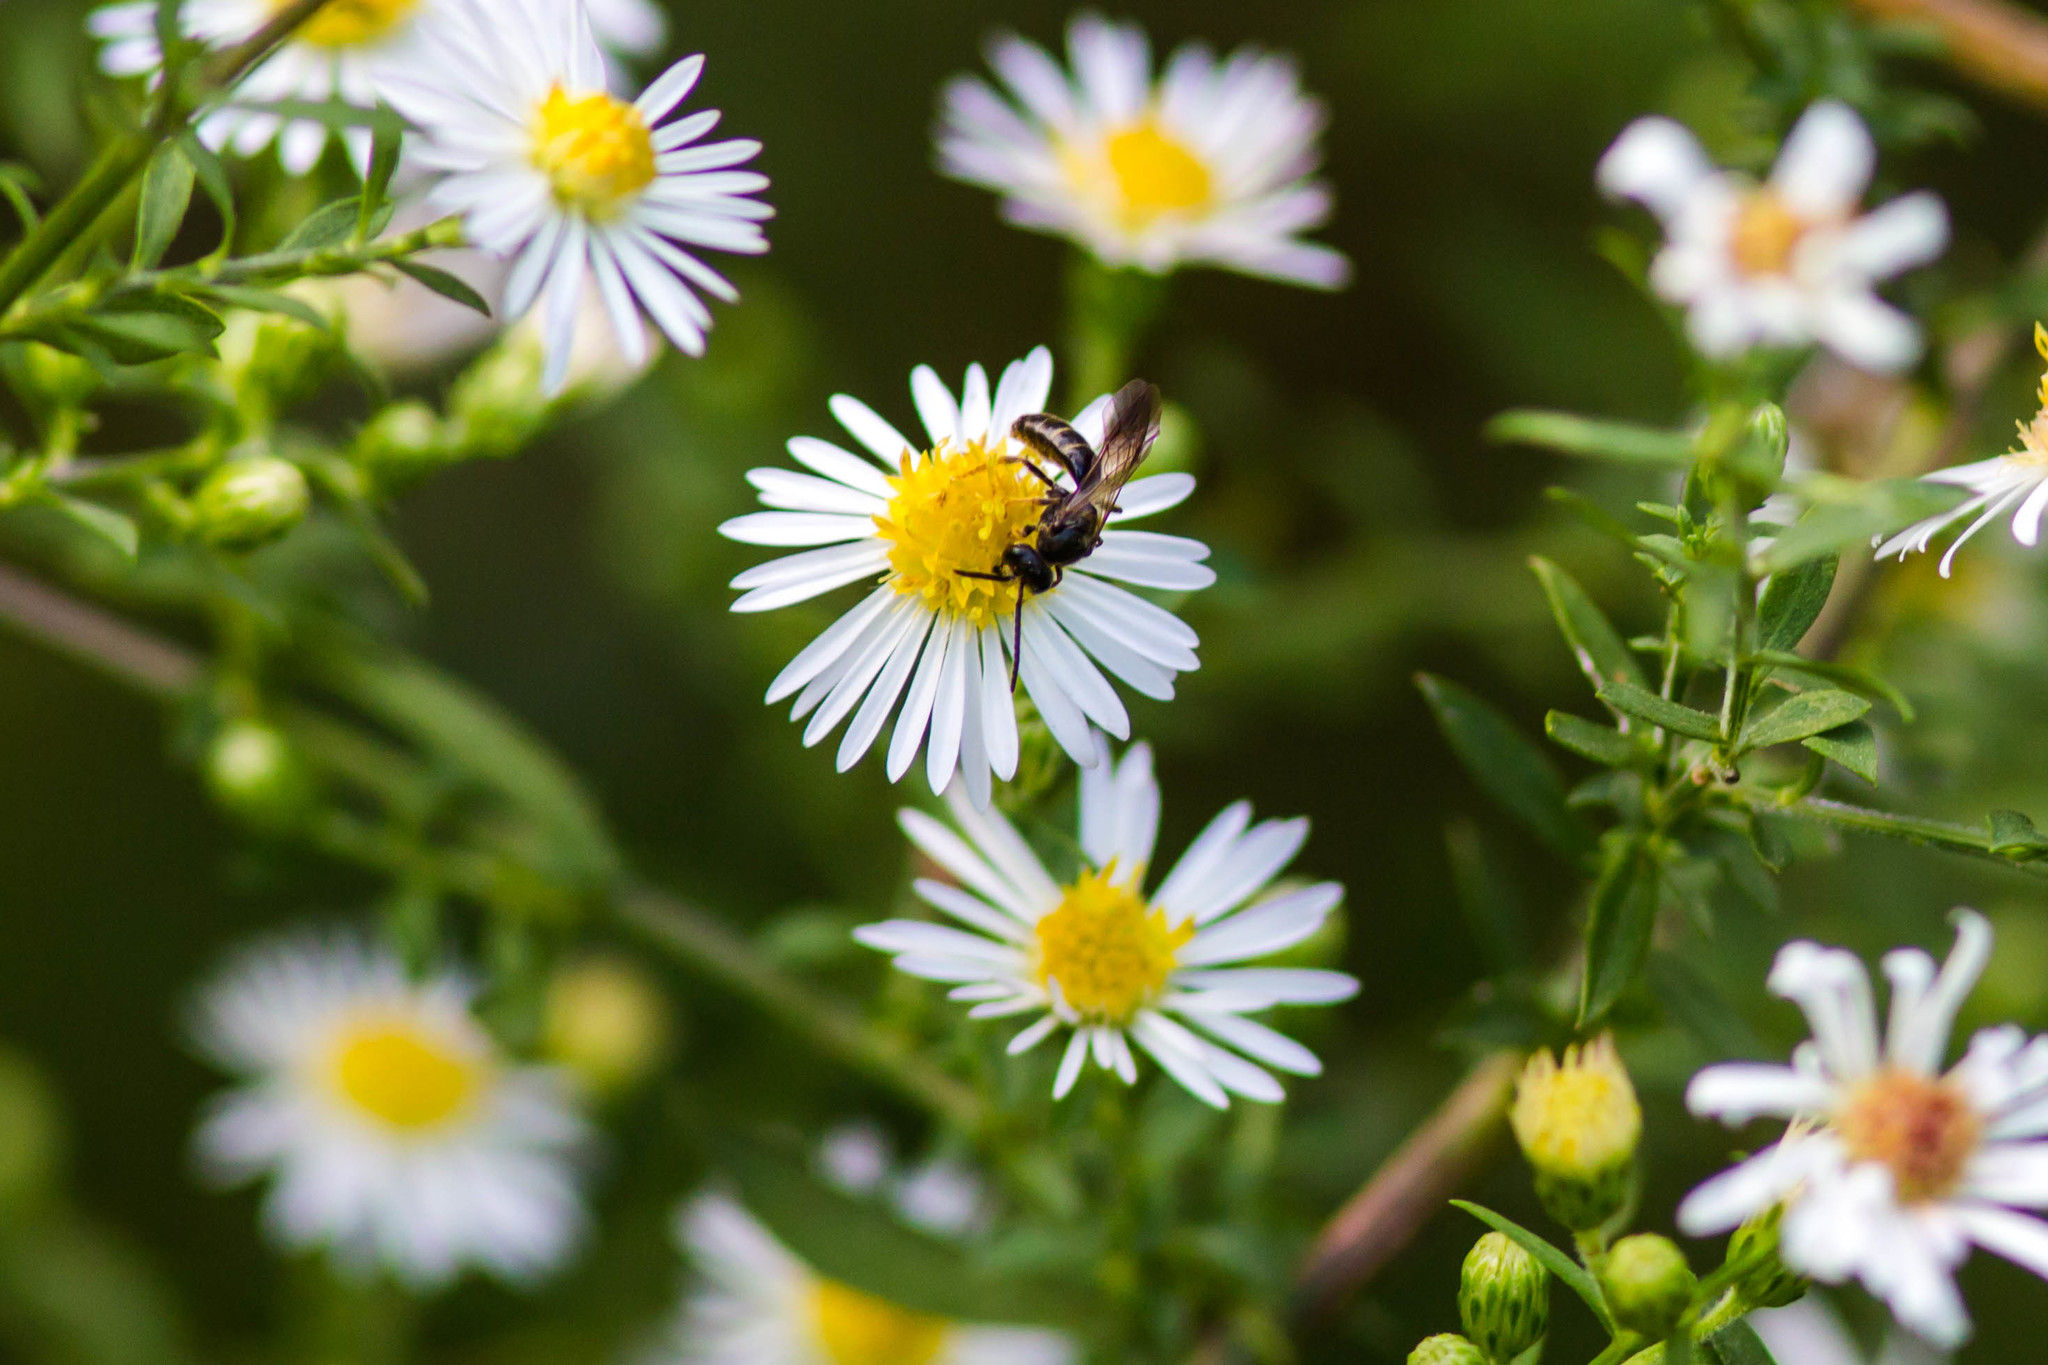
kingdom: Animalia
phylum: Arthropoda
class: Insecta
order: Hymenoptera
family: Halictidae
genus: Lasioglossum
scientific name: Lasioglossum fuscipenne
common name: Brown-winged sweat bee
